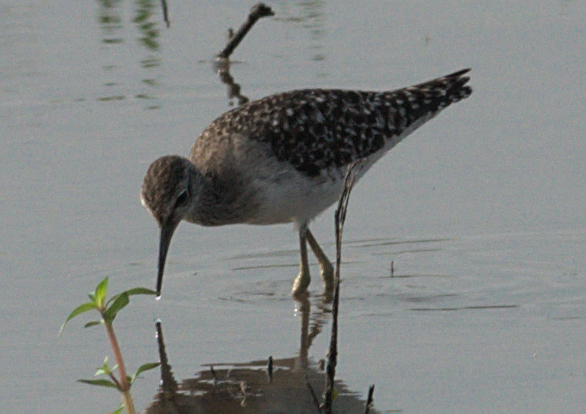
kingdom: Animalia
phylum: Chordata
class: Aves
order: Charadriiformes
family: Scolopacidae
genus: Tringa
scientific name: Tringa glareola
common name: Wood sandpiper
